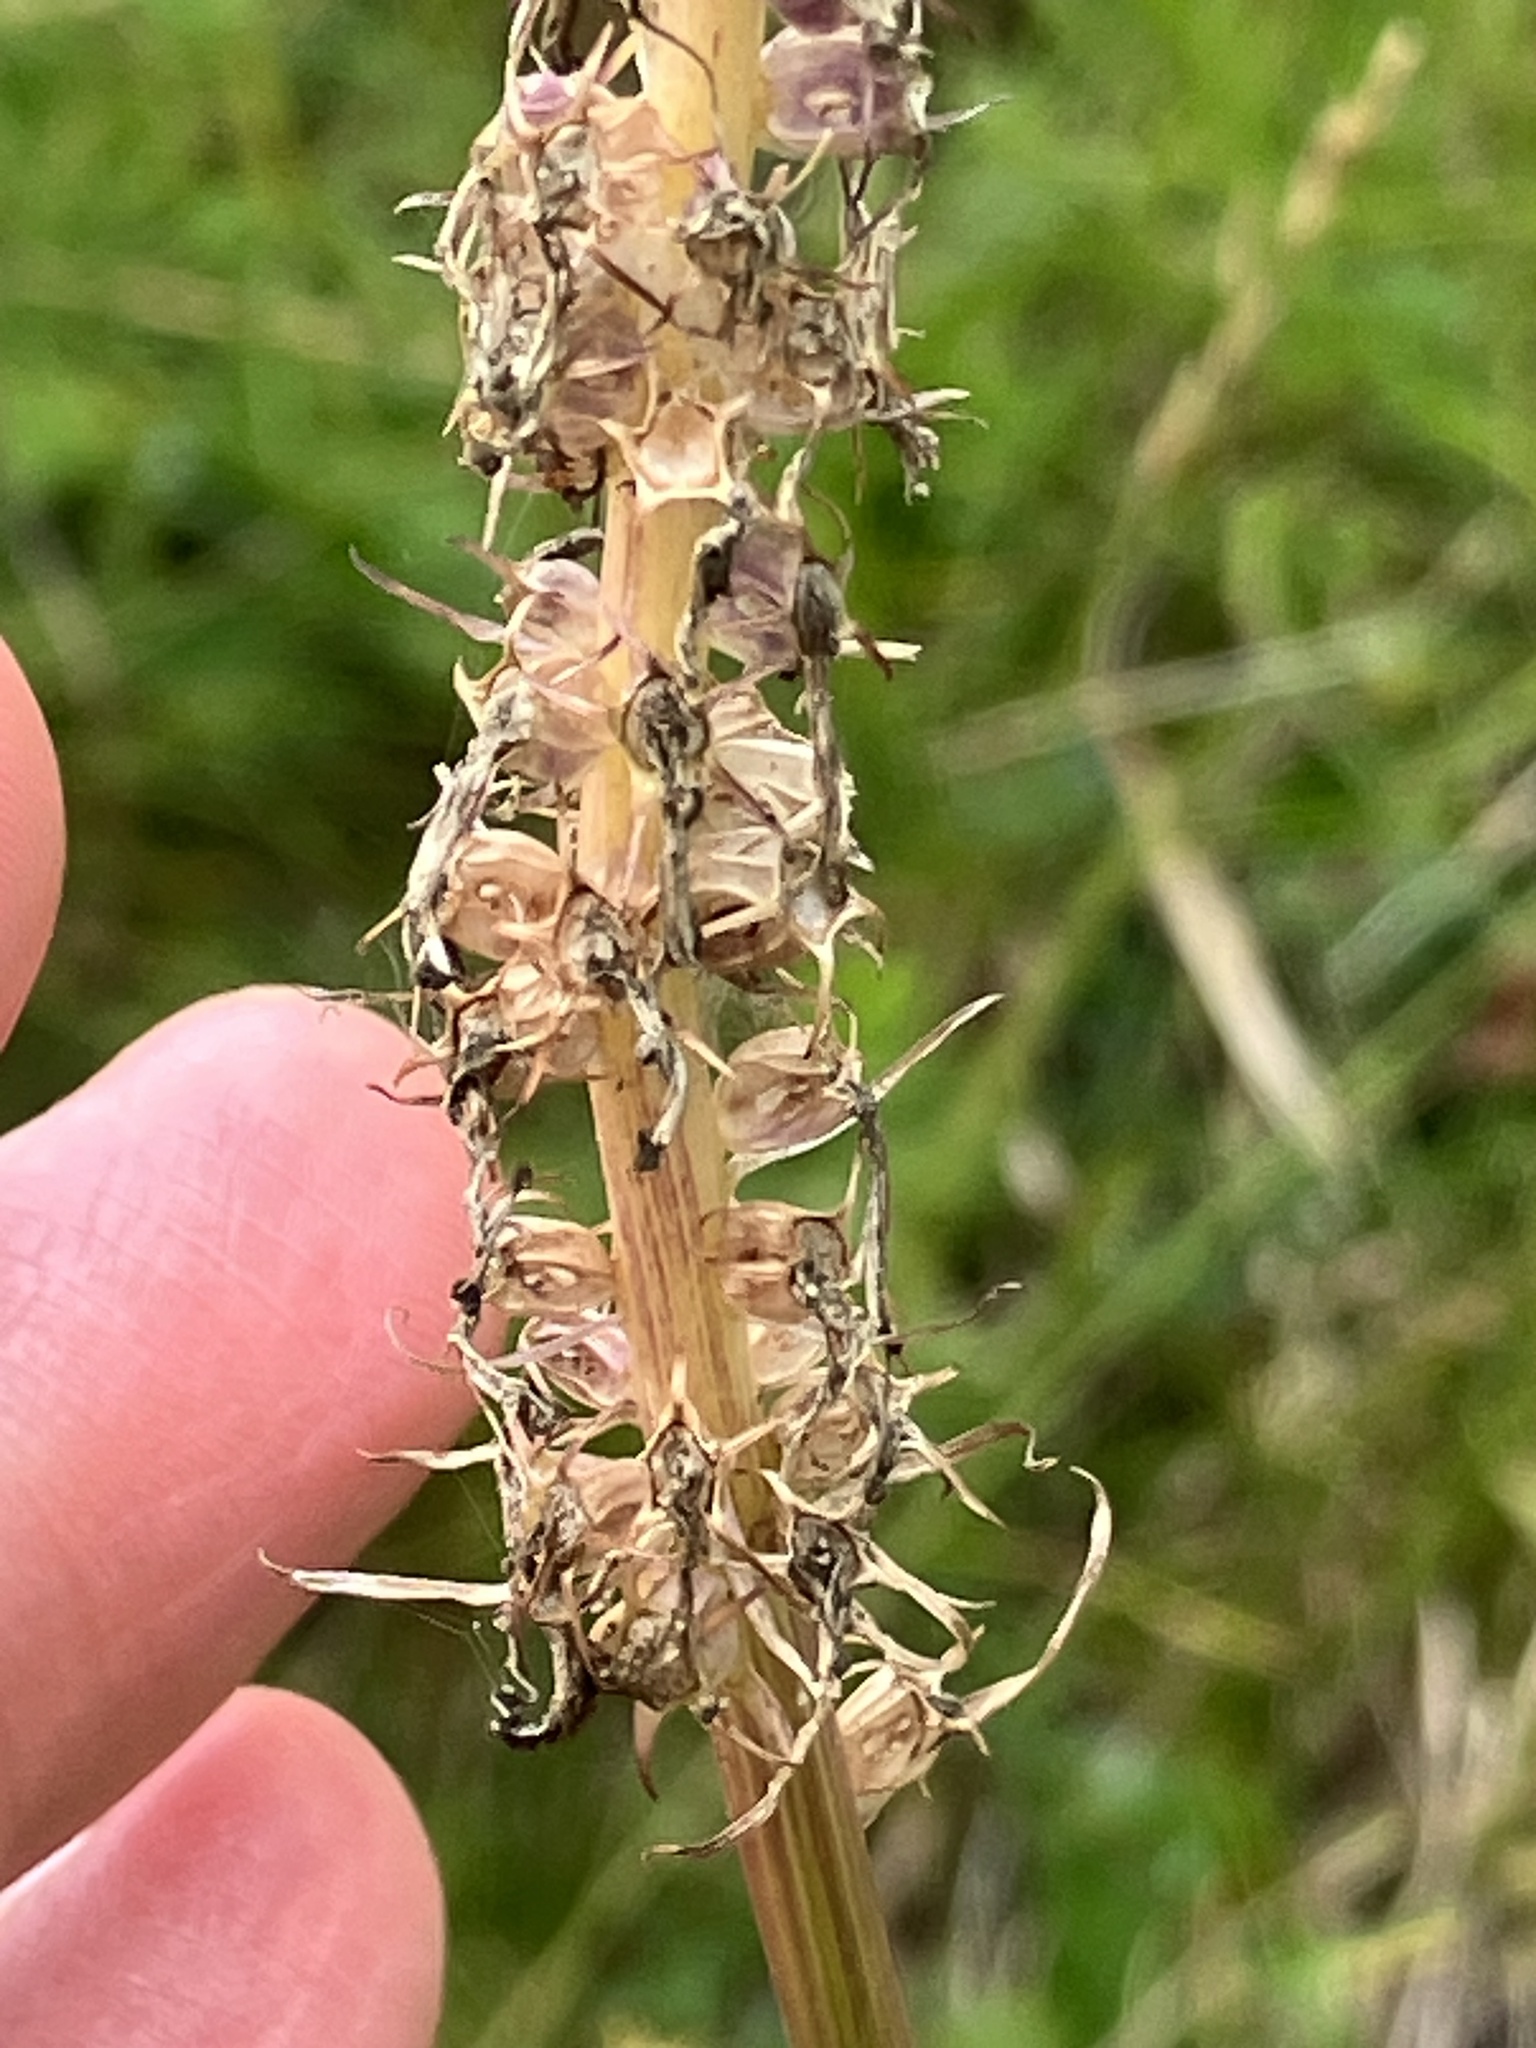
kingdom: Plantae
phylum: Tracheophyta
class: Magnoliopsida
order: Asterales
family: Campanulaceae
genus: Phyteuma
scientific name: Phyteuma persicifolium
